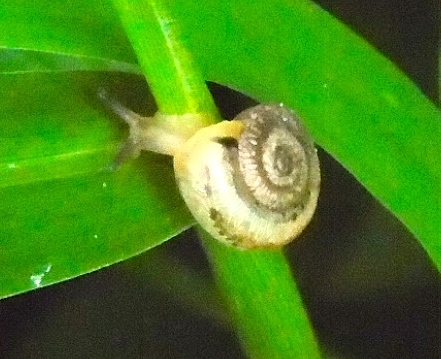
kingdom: Animalia
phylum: Mollusca
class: Gastropoda
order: Stylommatophora
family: Polygyridae
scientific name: Polygyridae
